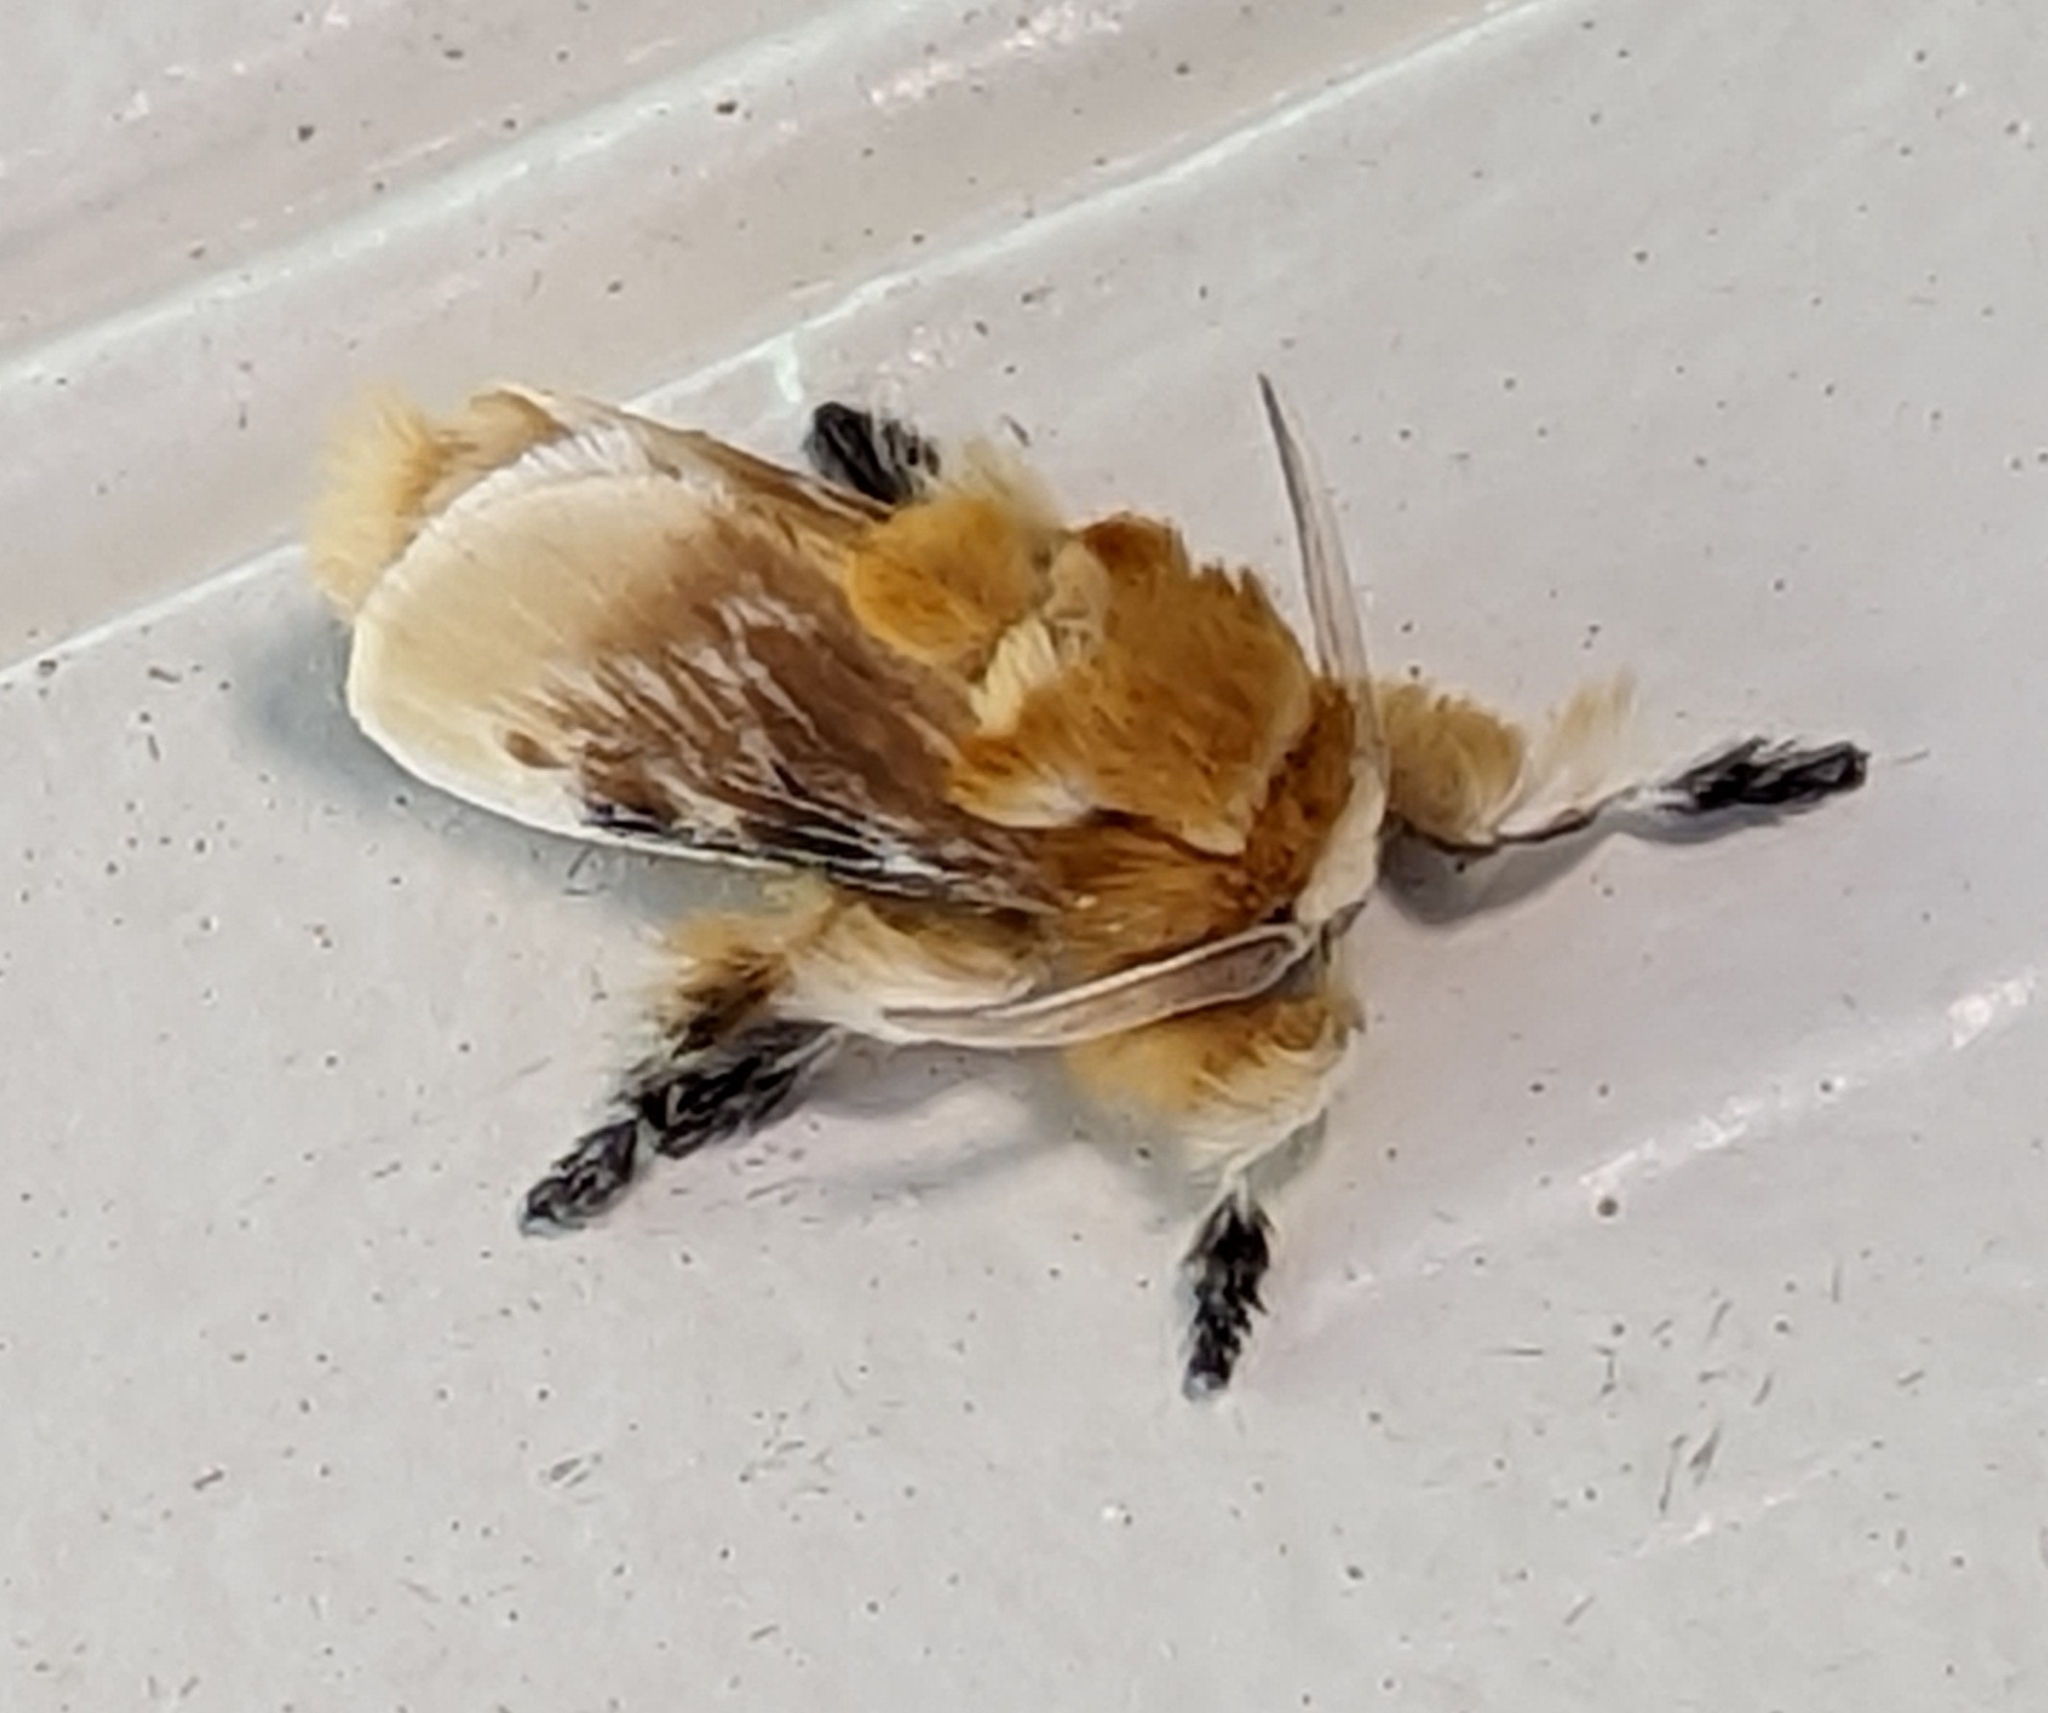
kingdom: Animalia
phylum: Arthropoda
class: Insecta
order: Lepidoptera
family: Megalopygidae
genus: Megalopyge
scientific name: Megalopyge opercularis
